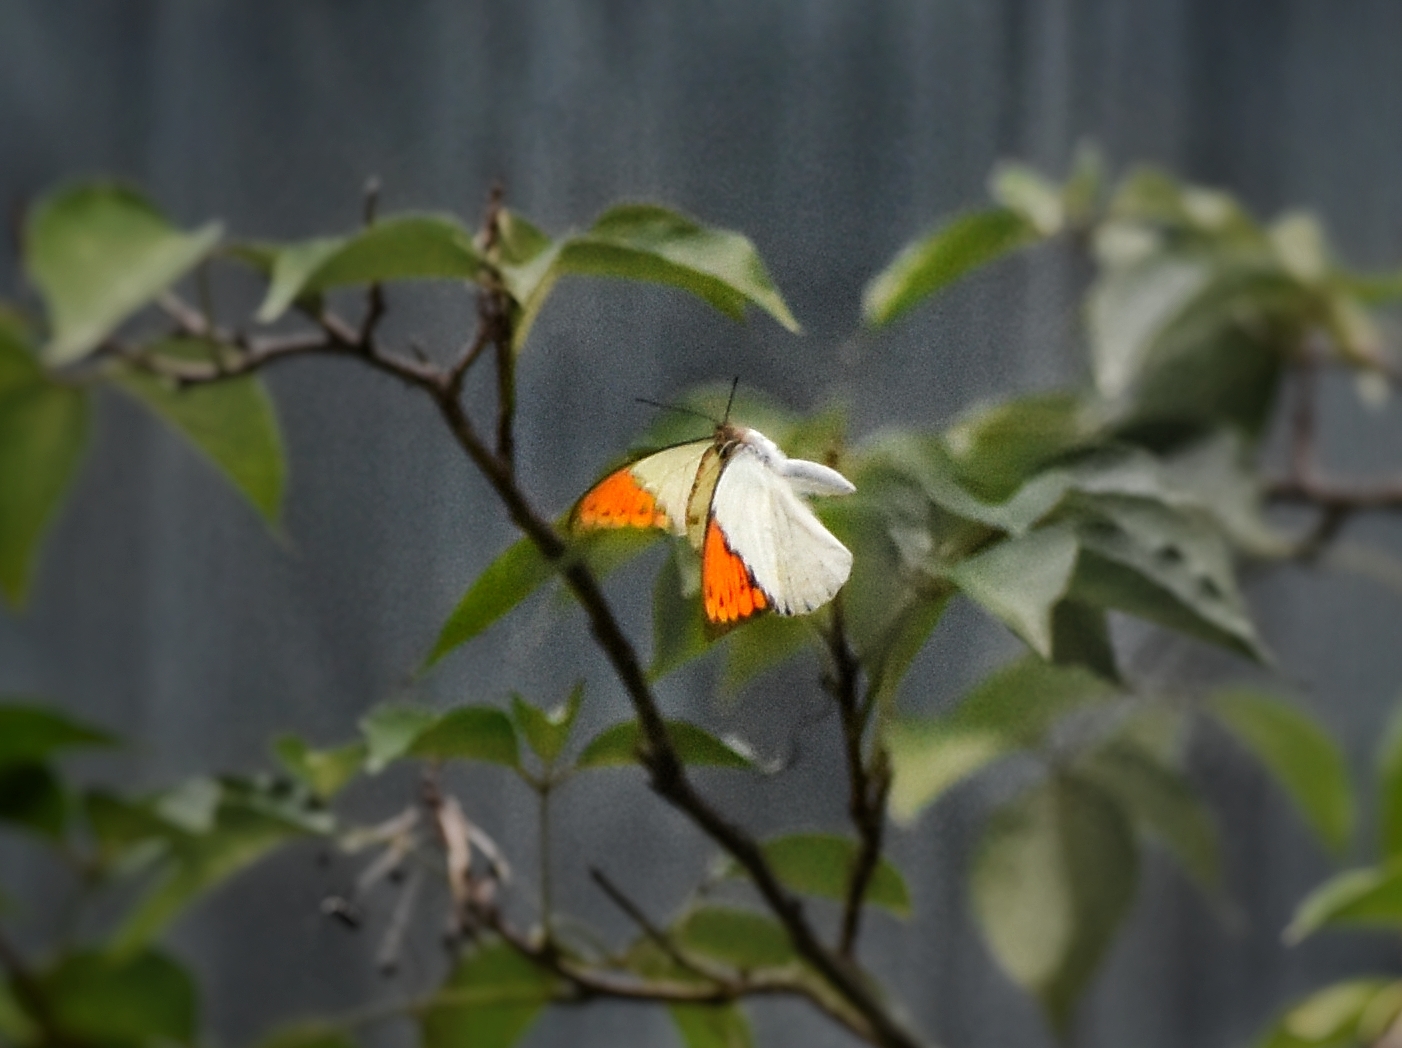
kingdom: Animalia
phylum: Arthropoda
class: Insecta
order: Lepidoptera
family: Pieridae
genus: Hebomoia
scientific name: Hebomoia glaucippe
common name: Great orange tip
